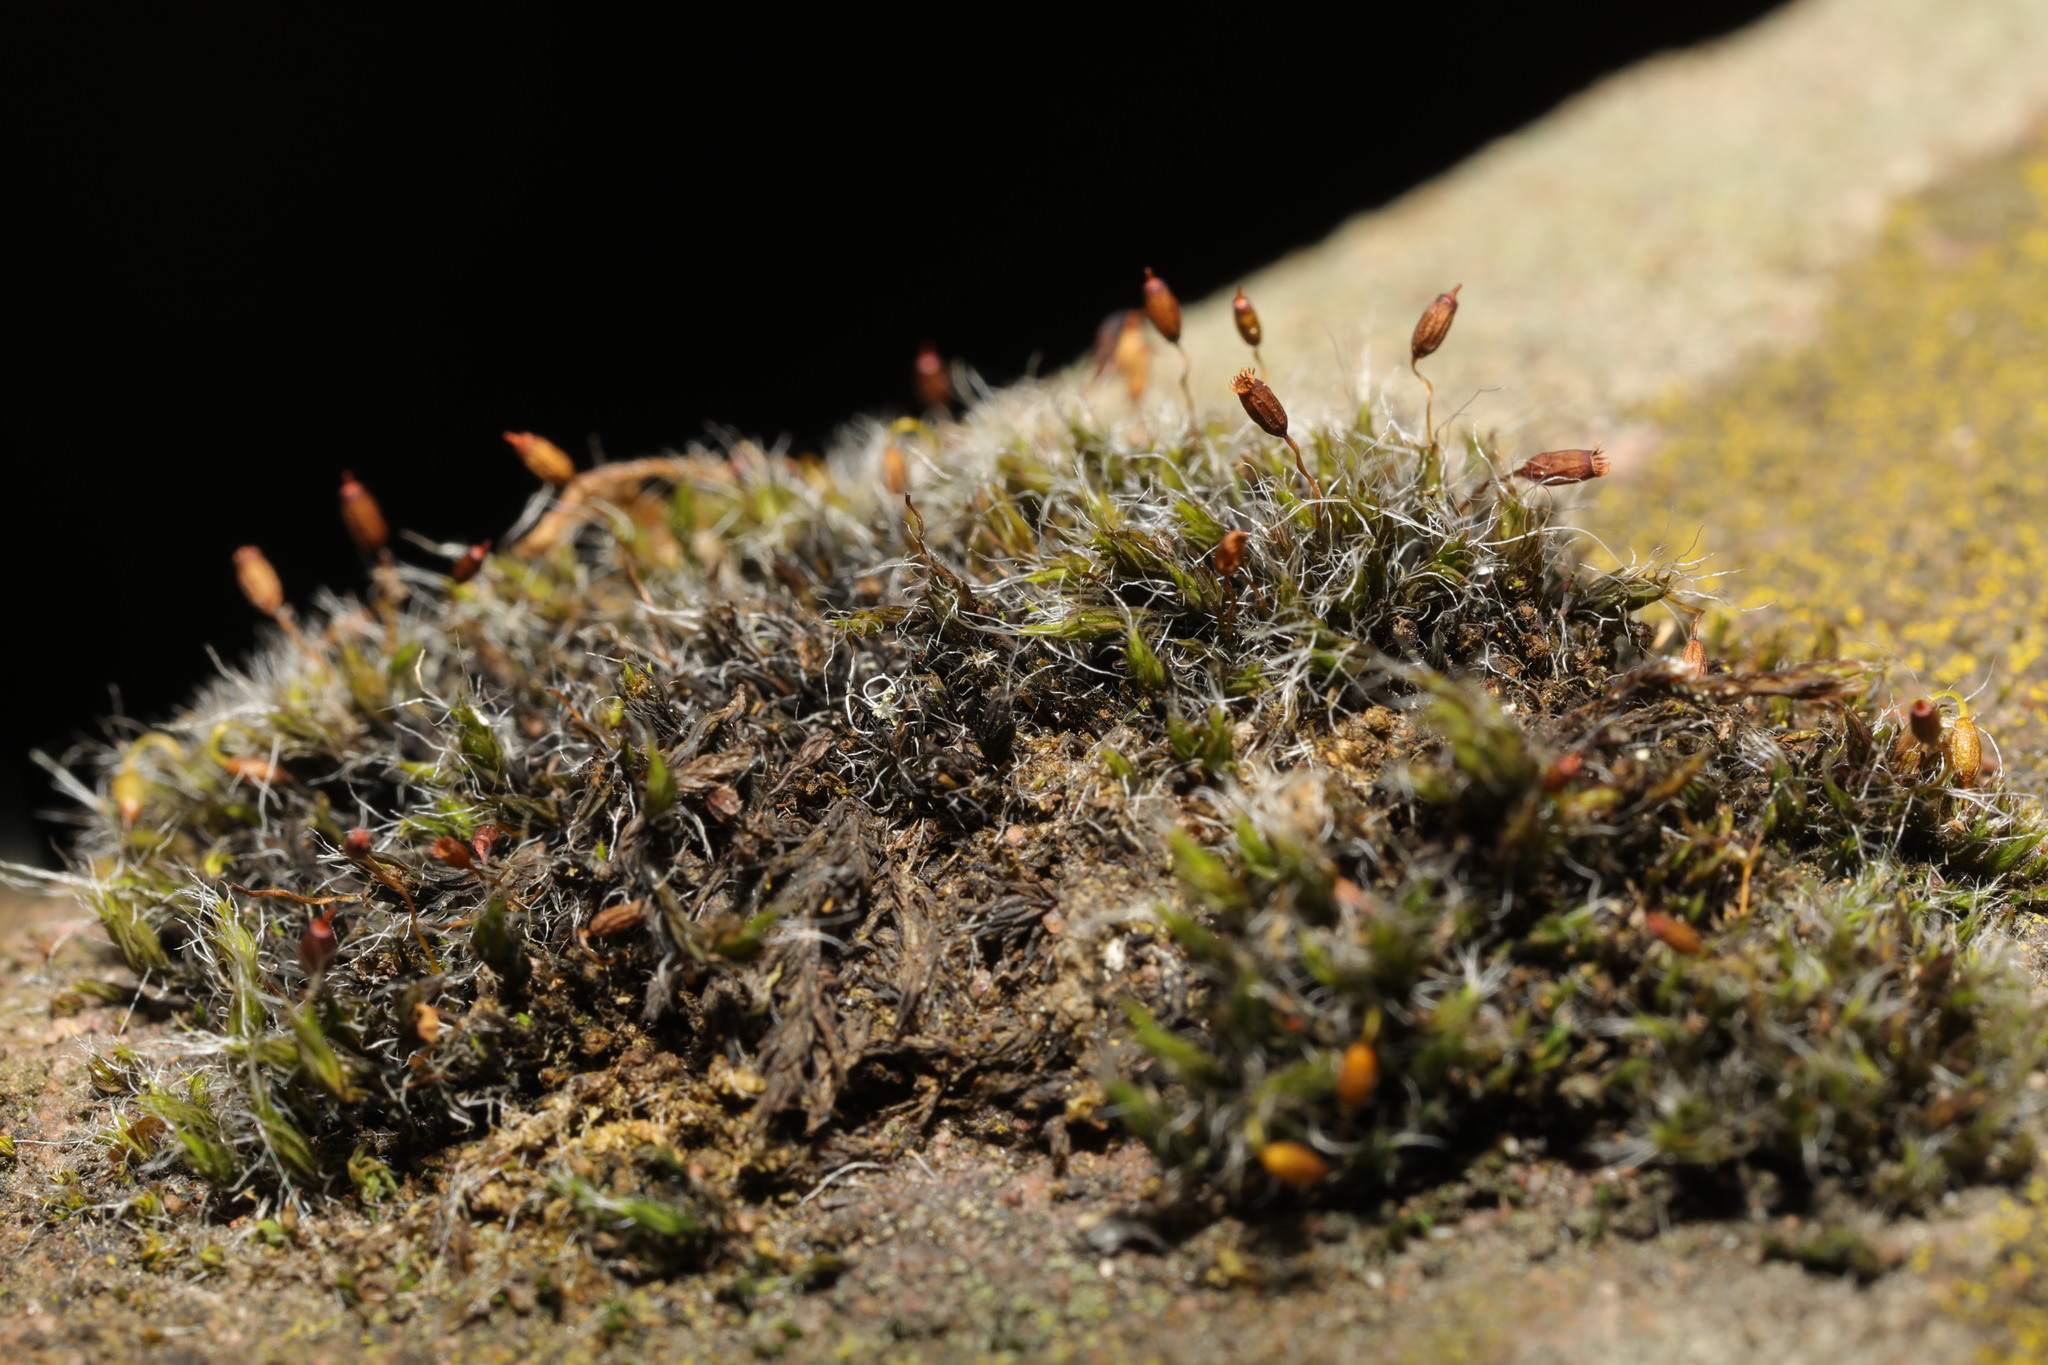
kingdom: Plantae
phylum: Bryophyta
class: Bryopsida
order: Grimmiales
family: Grimmiaceae
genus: Grimmia
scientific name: Grimmia pulvinata
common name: Grey-cushioned grimmia
